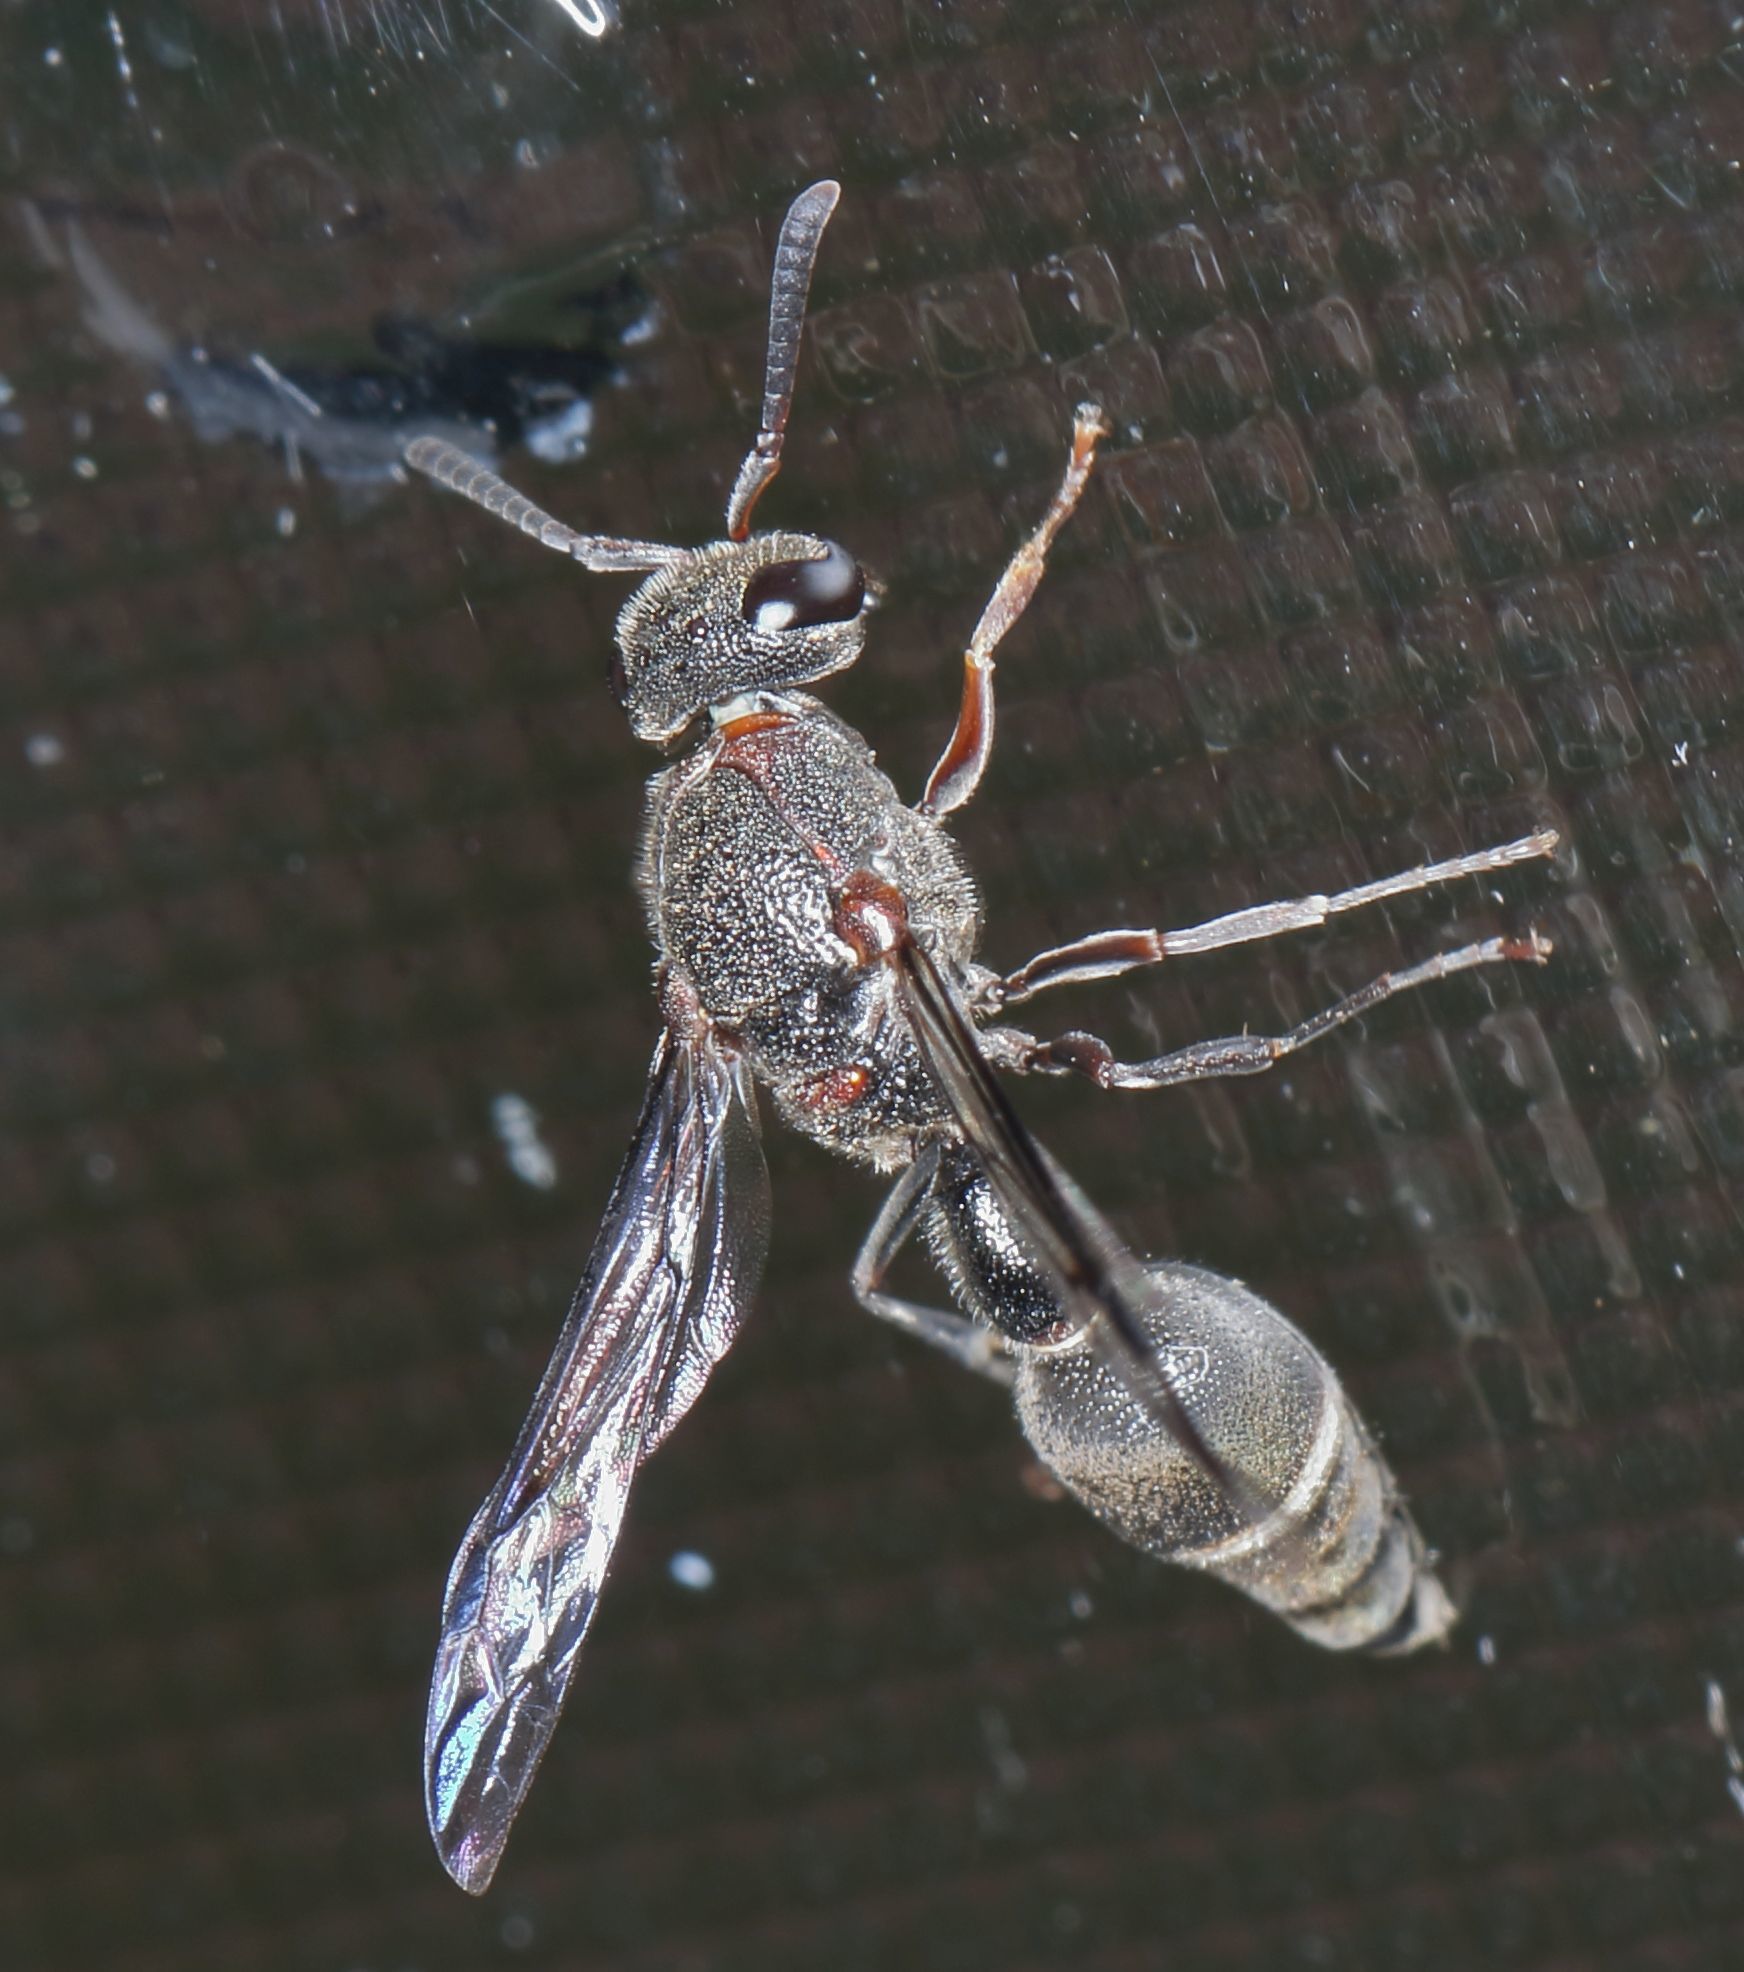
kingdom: Animalia
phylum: Arthropoda
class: Insecta
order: Hymenoptera
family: Eumenidae
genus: Pseudonortonia
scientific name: Pseudonortonia
